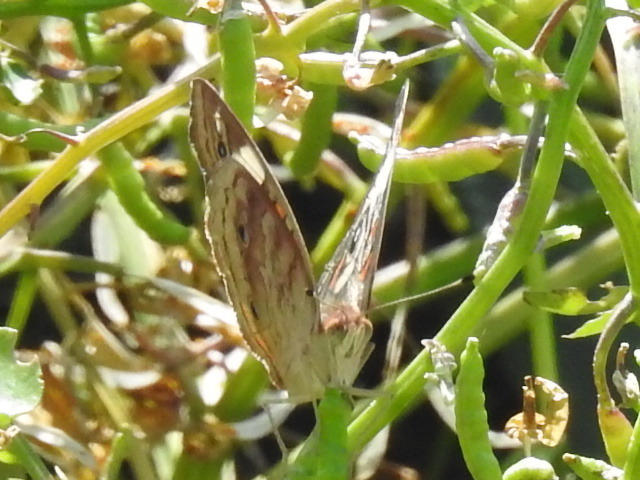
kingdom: Animalia
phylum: Arthropoda
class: Insecta
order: Lepidoptera
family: Nymphalidae
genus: Junonia
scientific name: Junonia coenia
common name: Common buckeye
